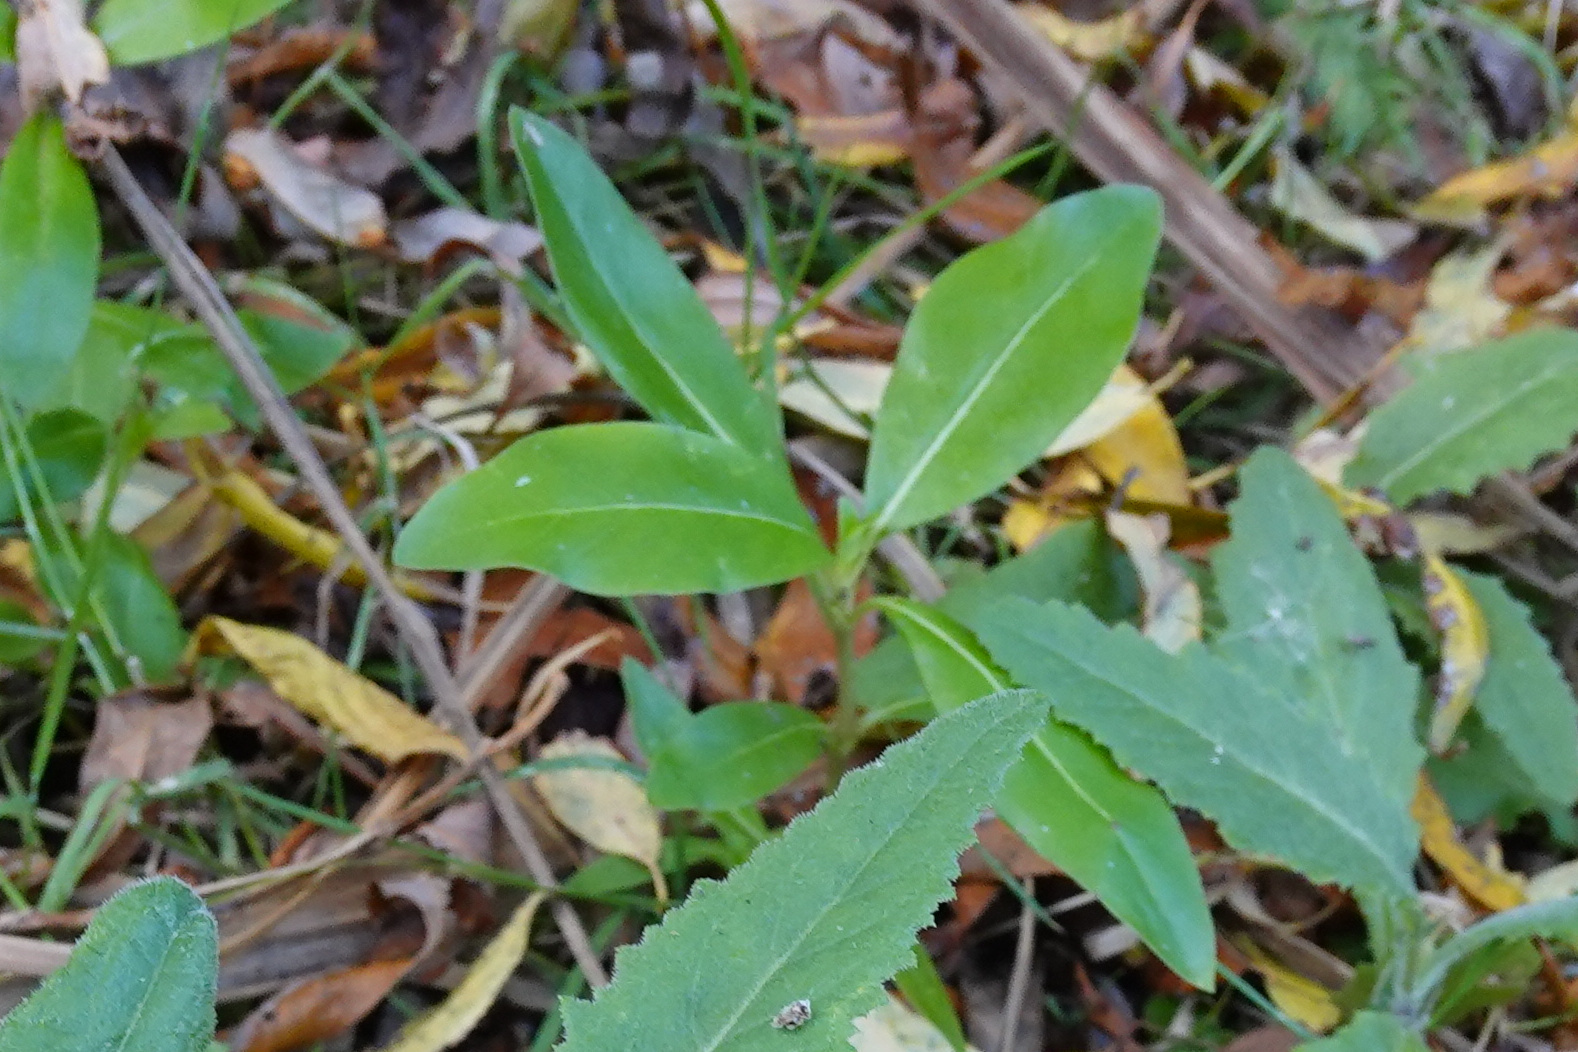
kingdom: Plantae
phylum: Tracheophyta
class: Magnoliopsida
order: Gentianales
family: Rubiaceae
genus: Coprosma
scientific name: Coprosma robusta
